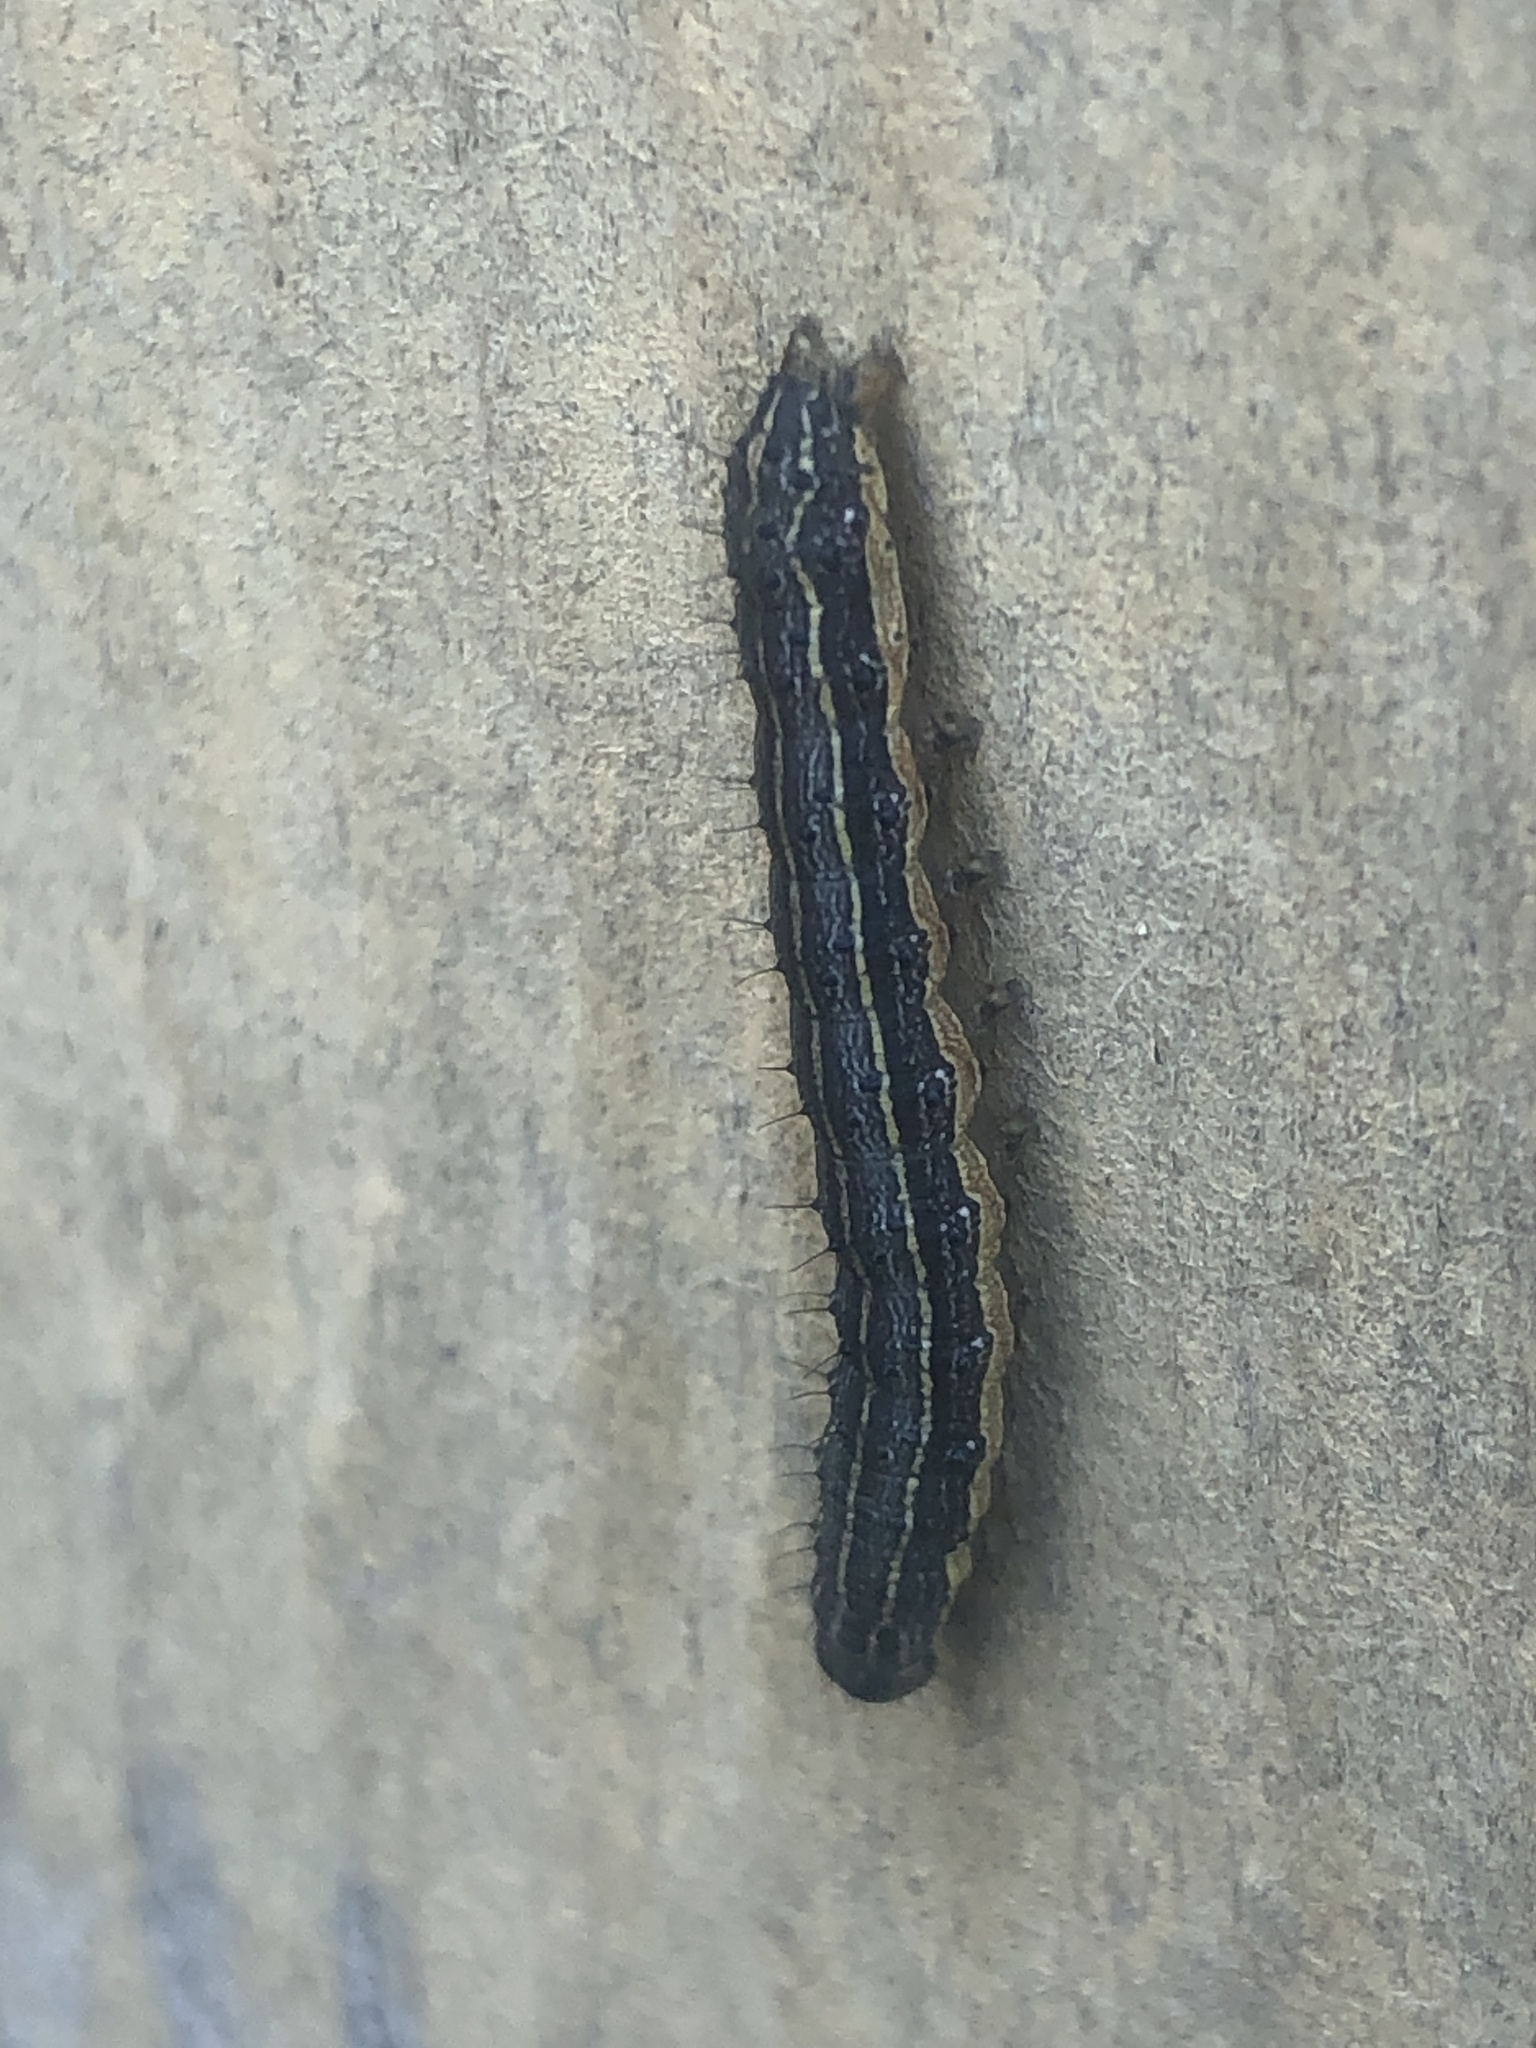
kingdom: Animalia
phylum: Arthropoda
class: Insecta
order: Lepidoptera
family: Noctuidae
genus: Spodoptera
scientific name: Spodoptera frugiperda
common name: Fall armyworm
